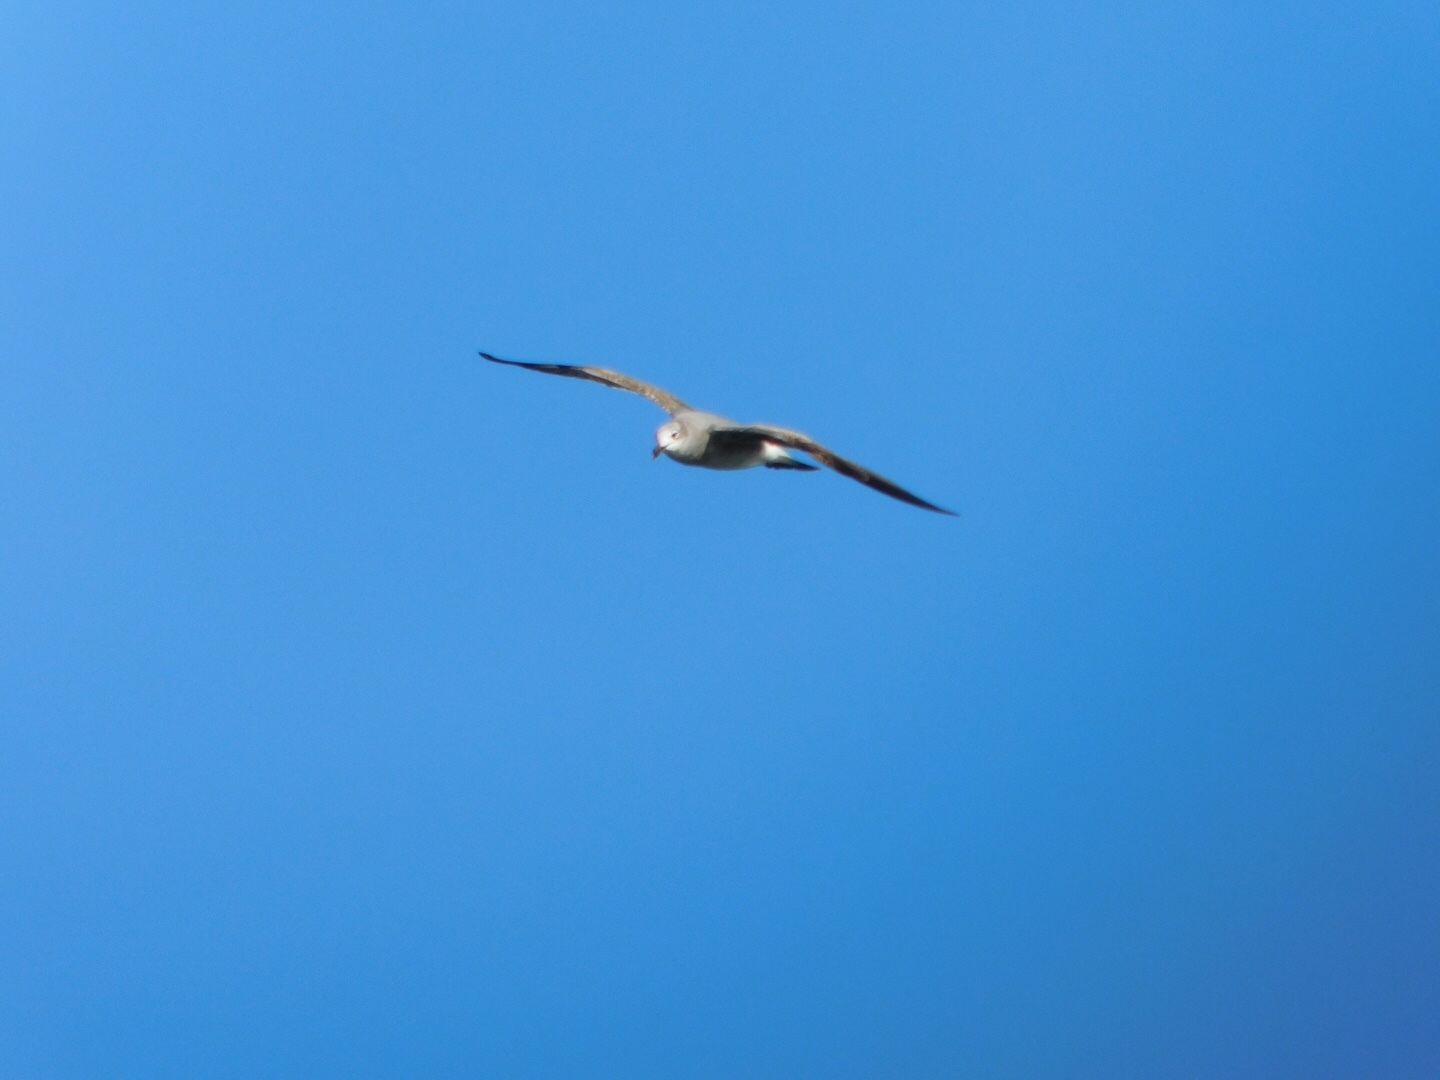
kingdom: Animalia
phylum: Chordata
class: Aves
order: Charadriiformes
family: Laridae
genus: Leucophaeus
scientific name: Leucophaeus atricilla
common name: Laughing gull
